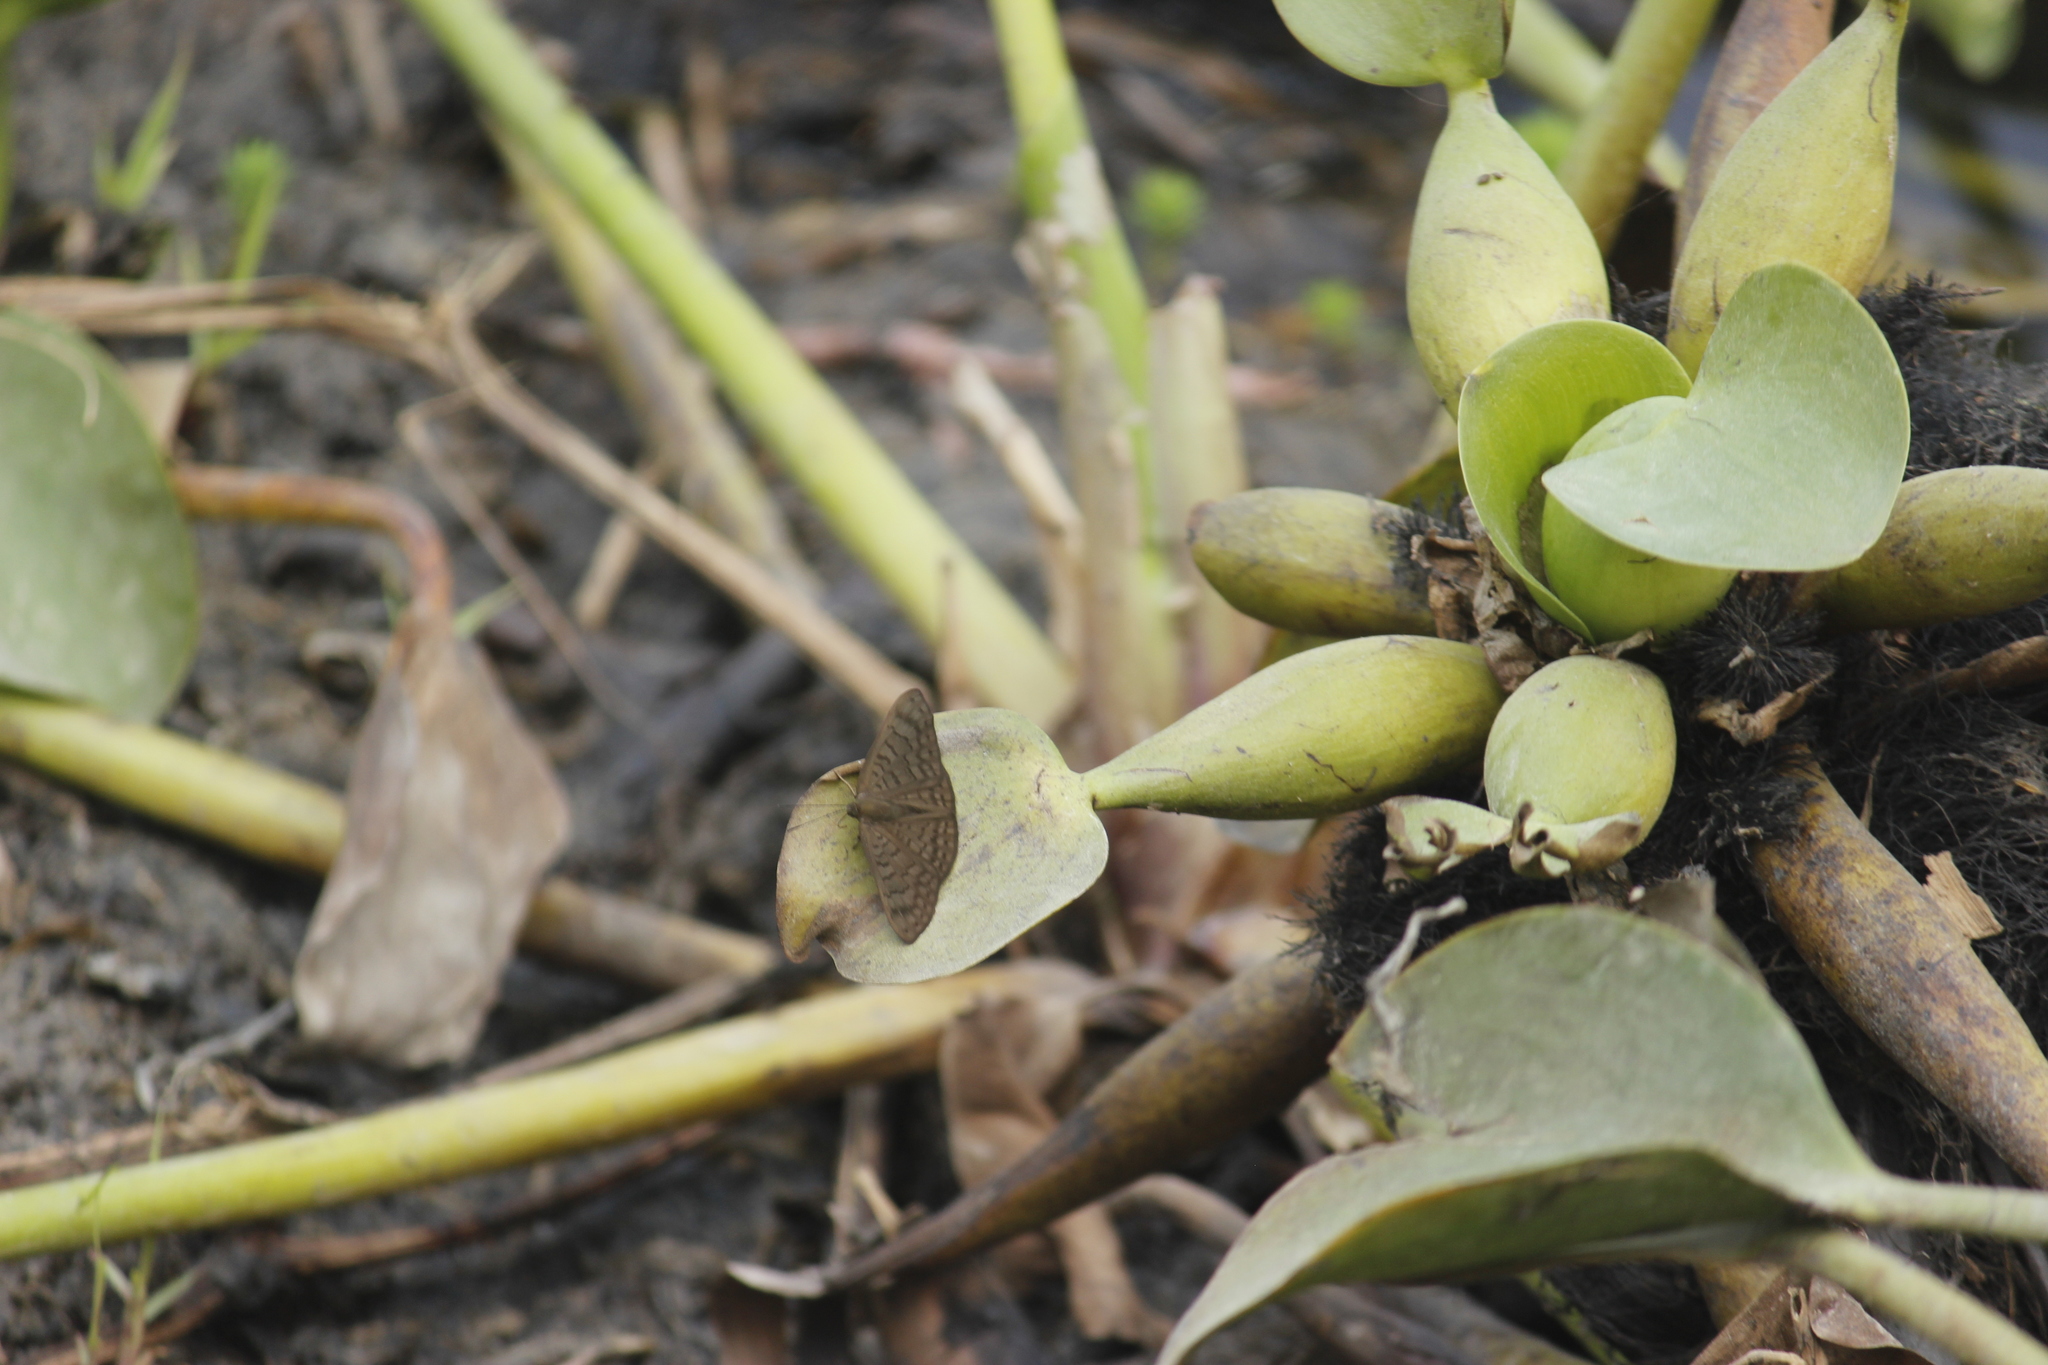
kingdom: Plantae
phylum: Tracheophyta
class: Liliopsida
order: Commelinales
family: Pontederiaceae
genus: Pontederia
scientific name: Pontederia crassipes
